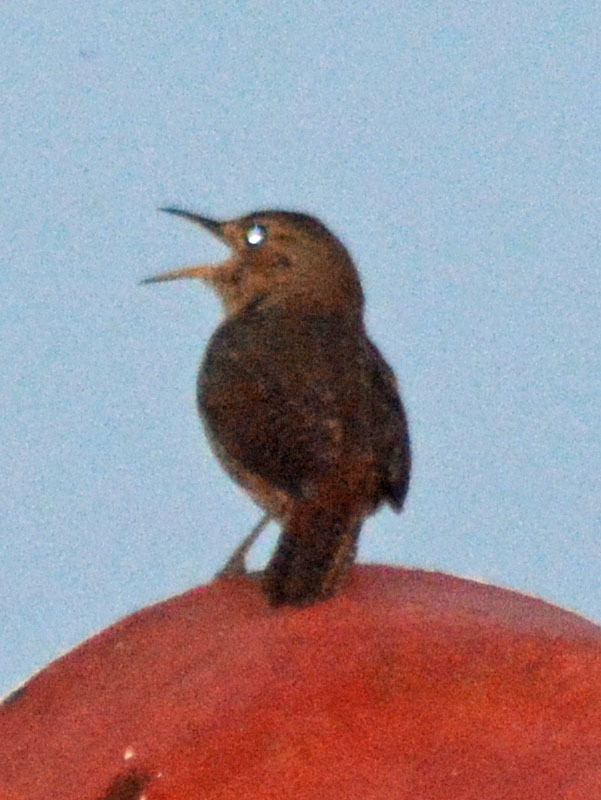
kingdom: Animalia
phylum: Chordata
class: Aves
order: Passeriformes
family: Troglodytidae
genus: Troglodytes
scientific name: Troglodytes aedon
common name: House wren
